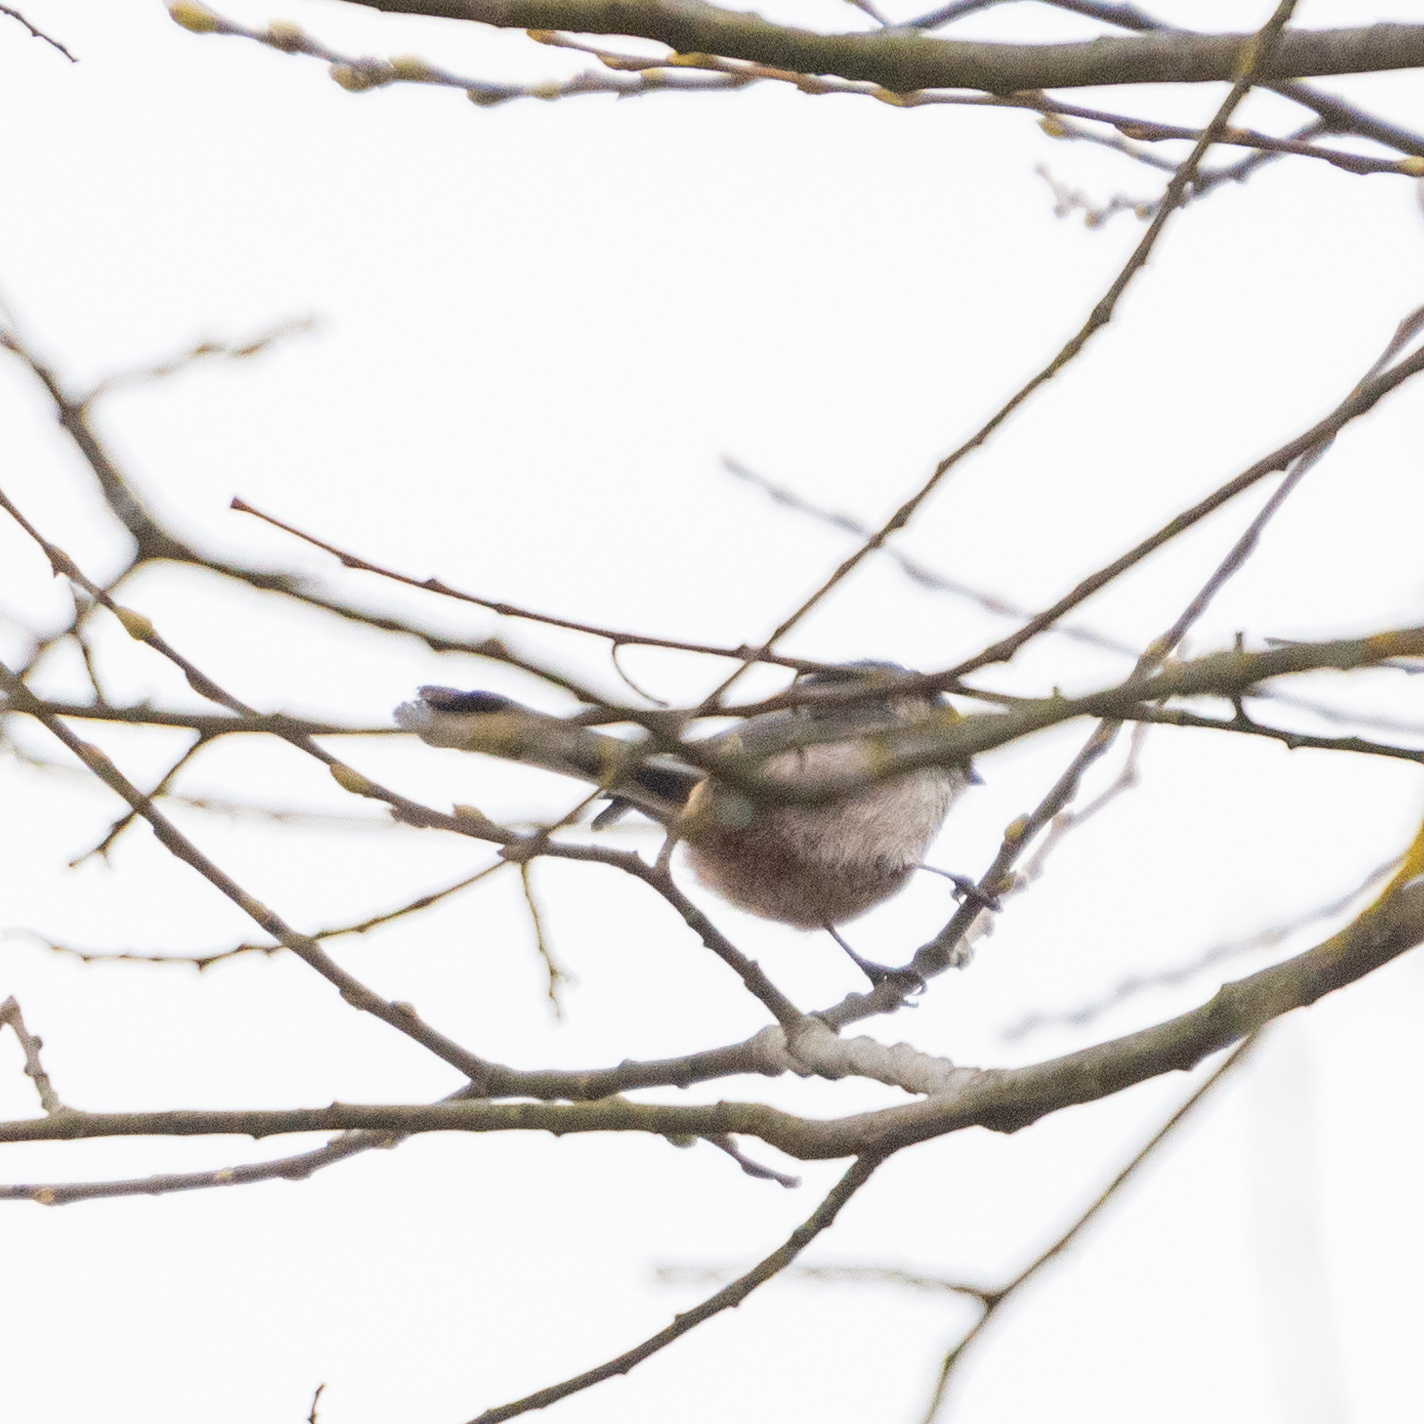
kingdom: Animalia
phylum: Chordata
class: Aves
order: Passeriformes
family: Aegithalidae
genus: Aegithalos
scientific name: Aegithalos caudatus
